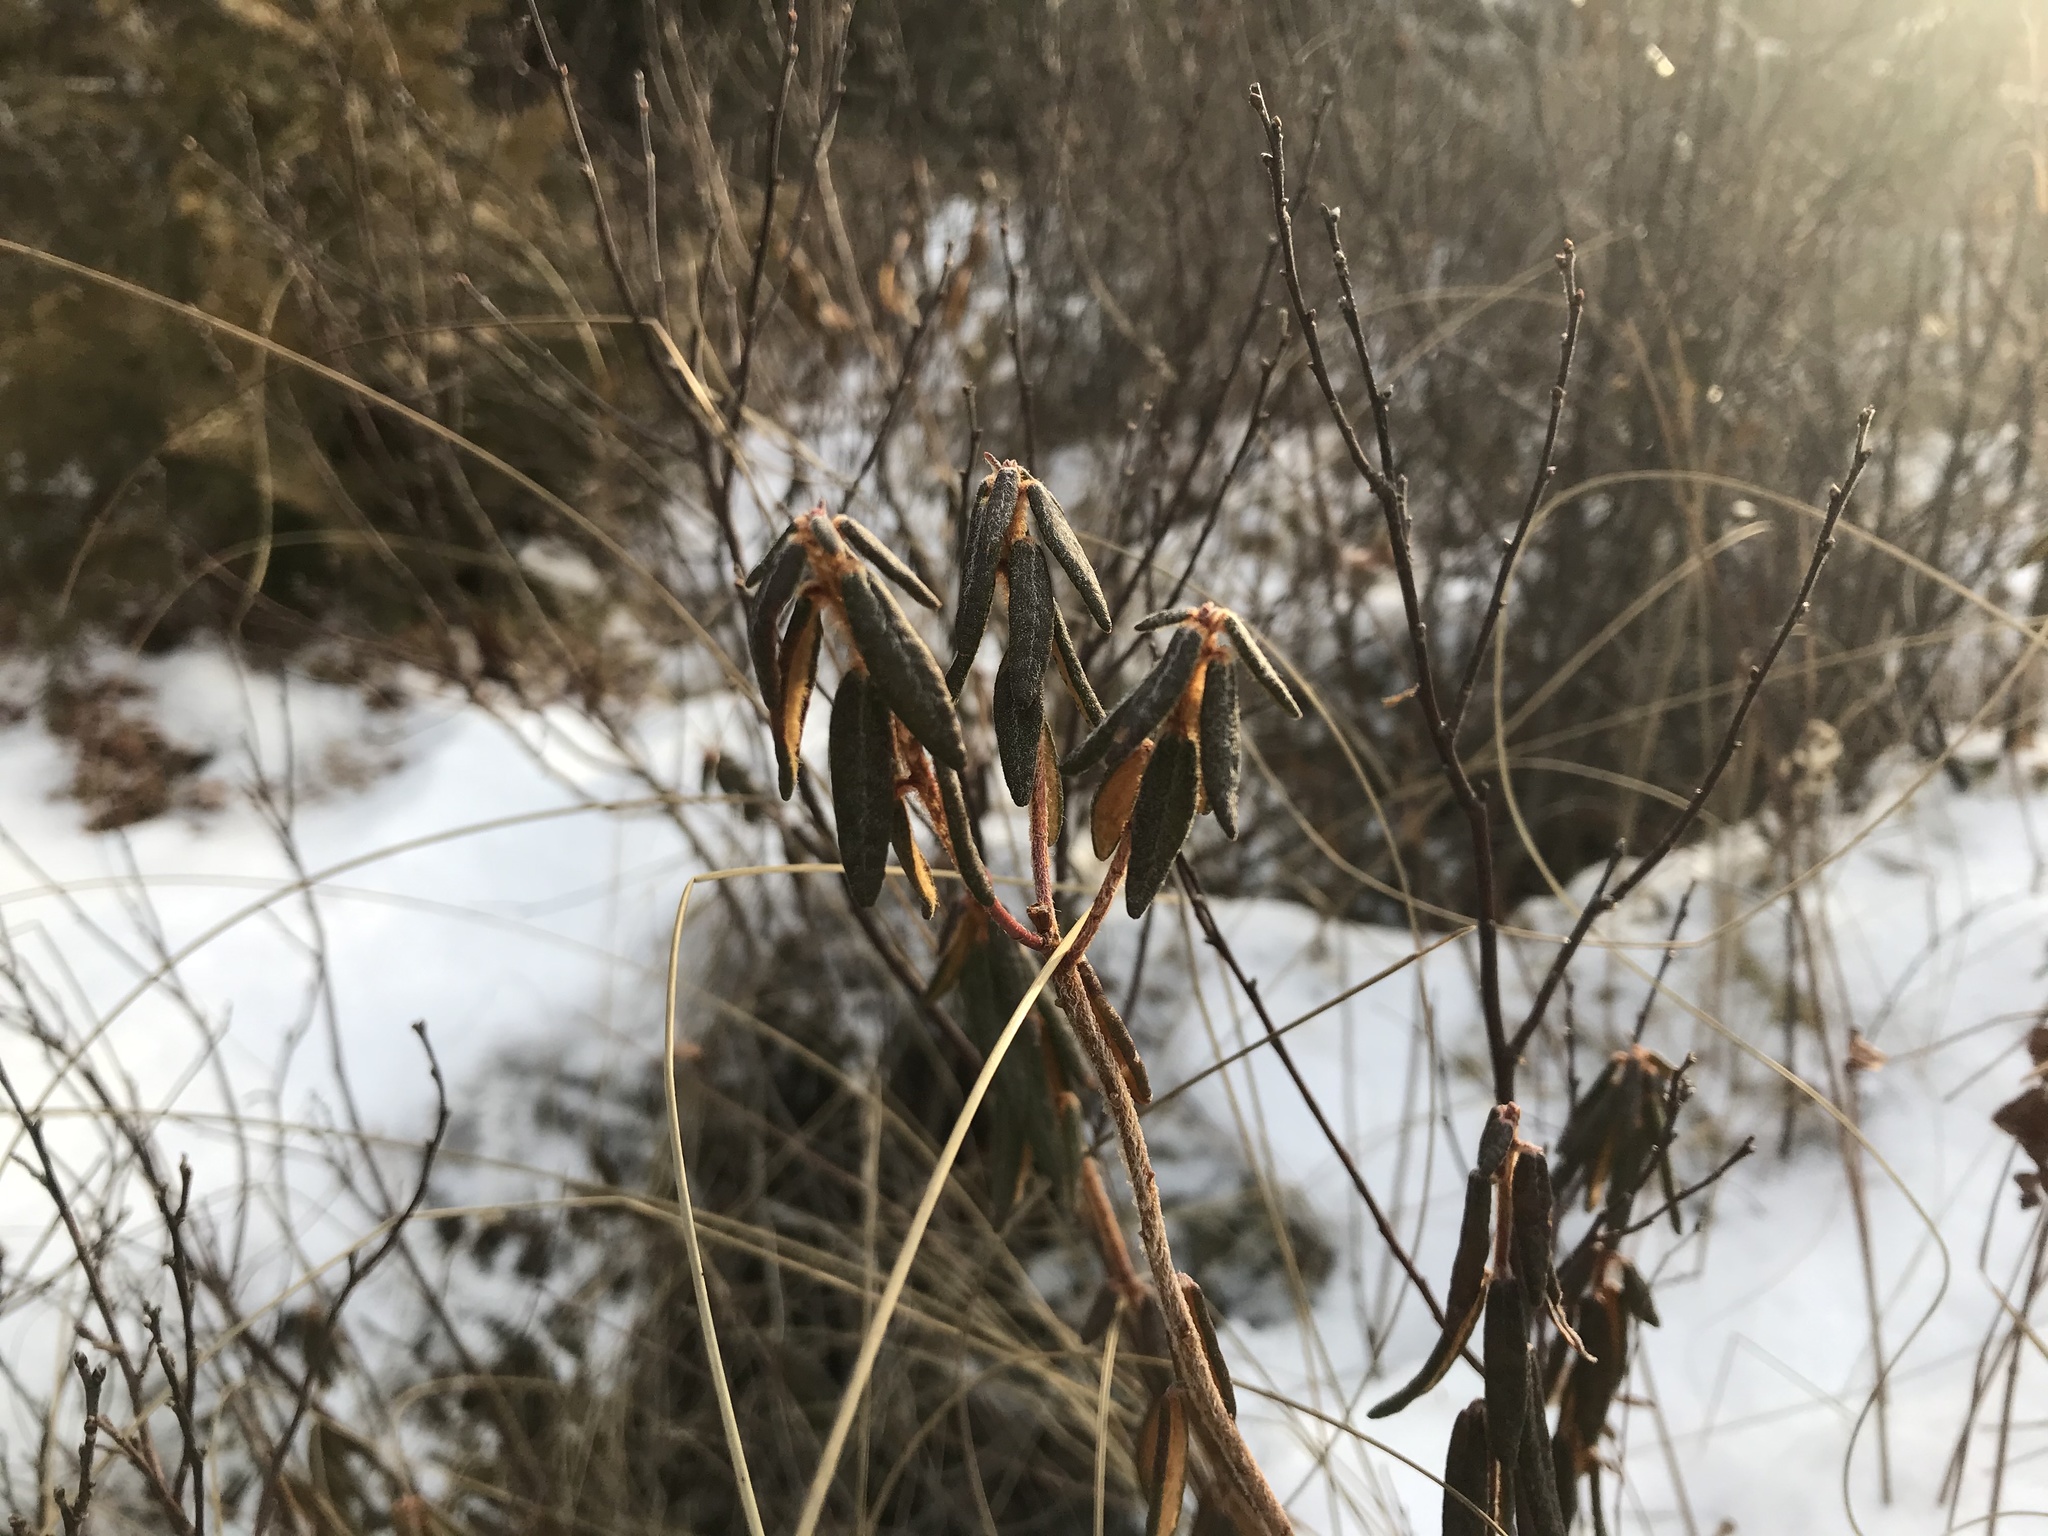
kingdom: Plantae
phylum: Tracheophyta
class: Magnoliopsida
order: Ericales
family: Ericaceae
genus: Rhododendron
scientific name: Rhododendron groenlandicum
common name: Bog labrador tea
